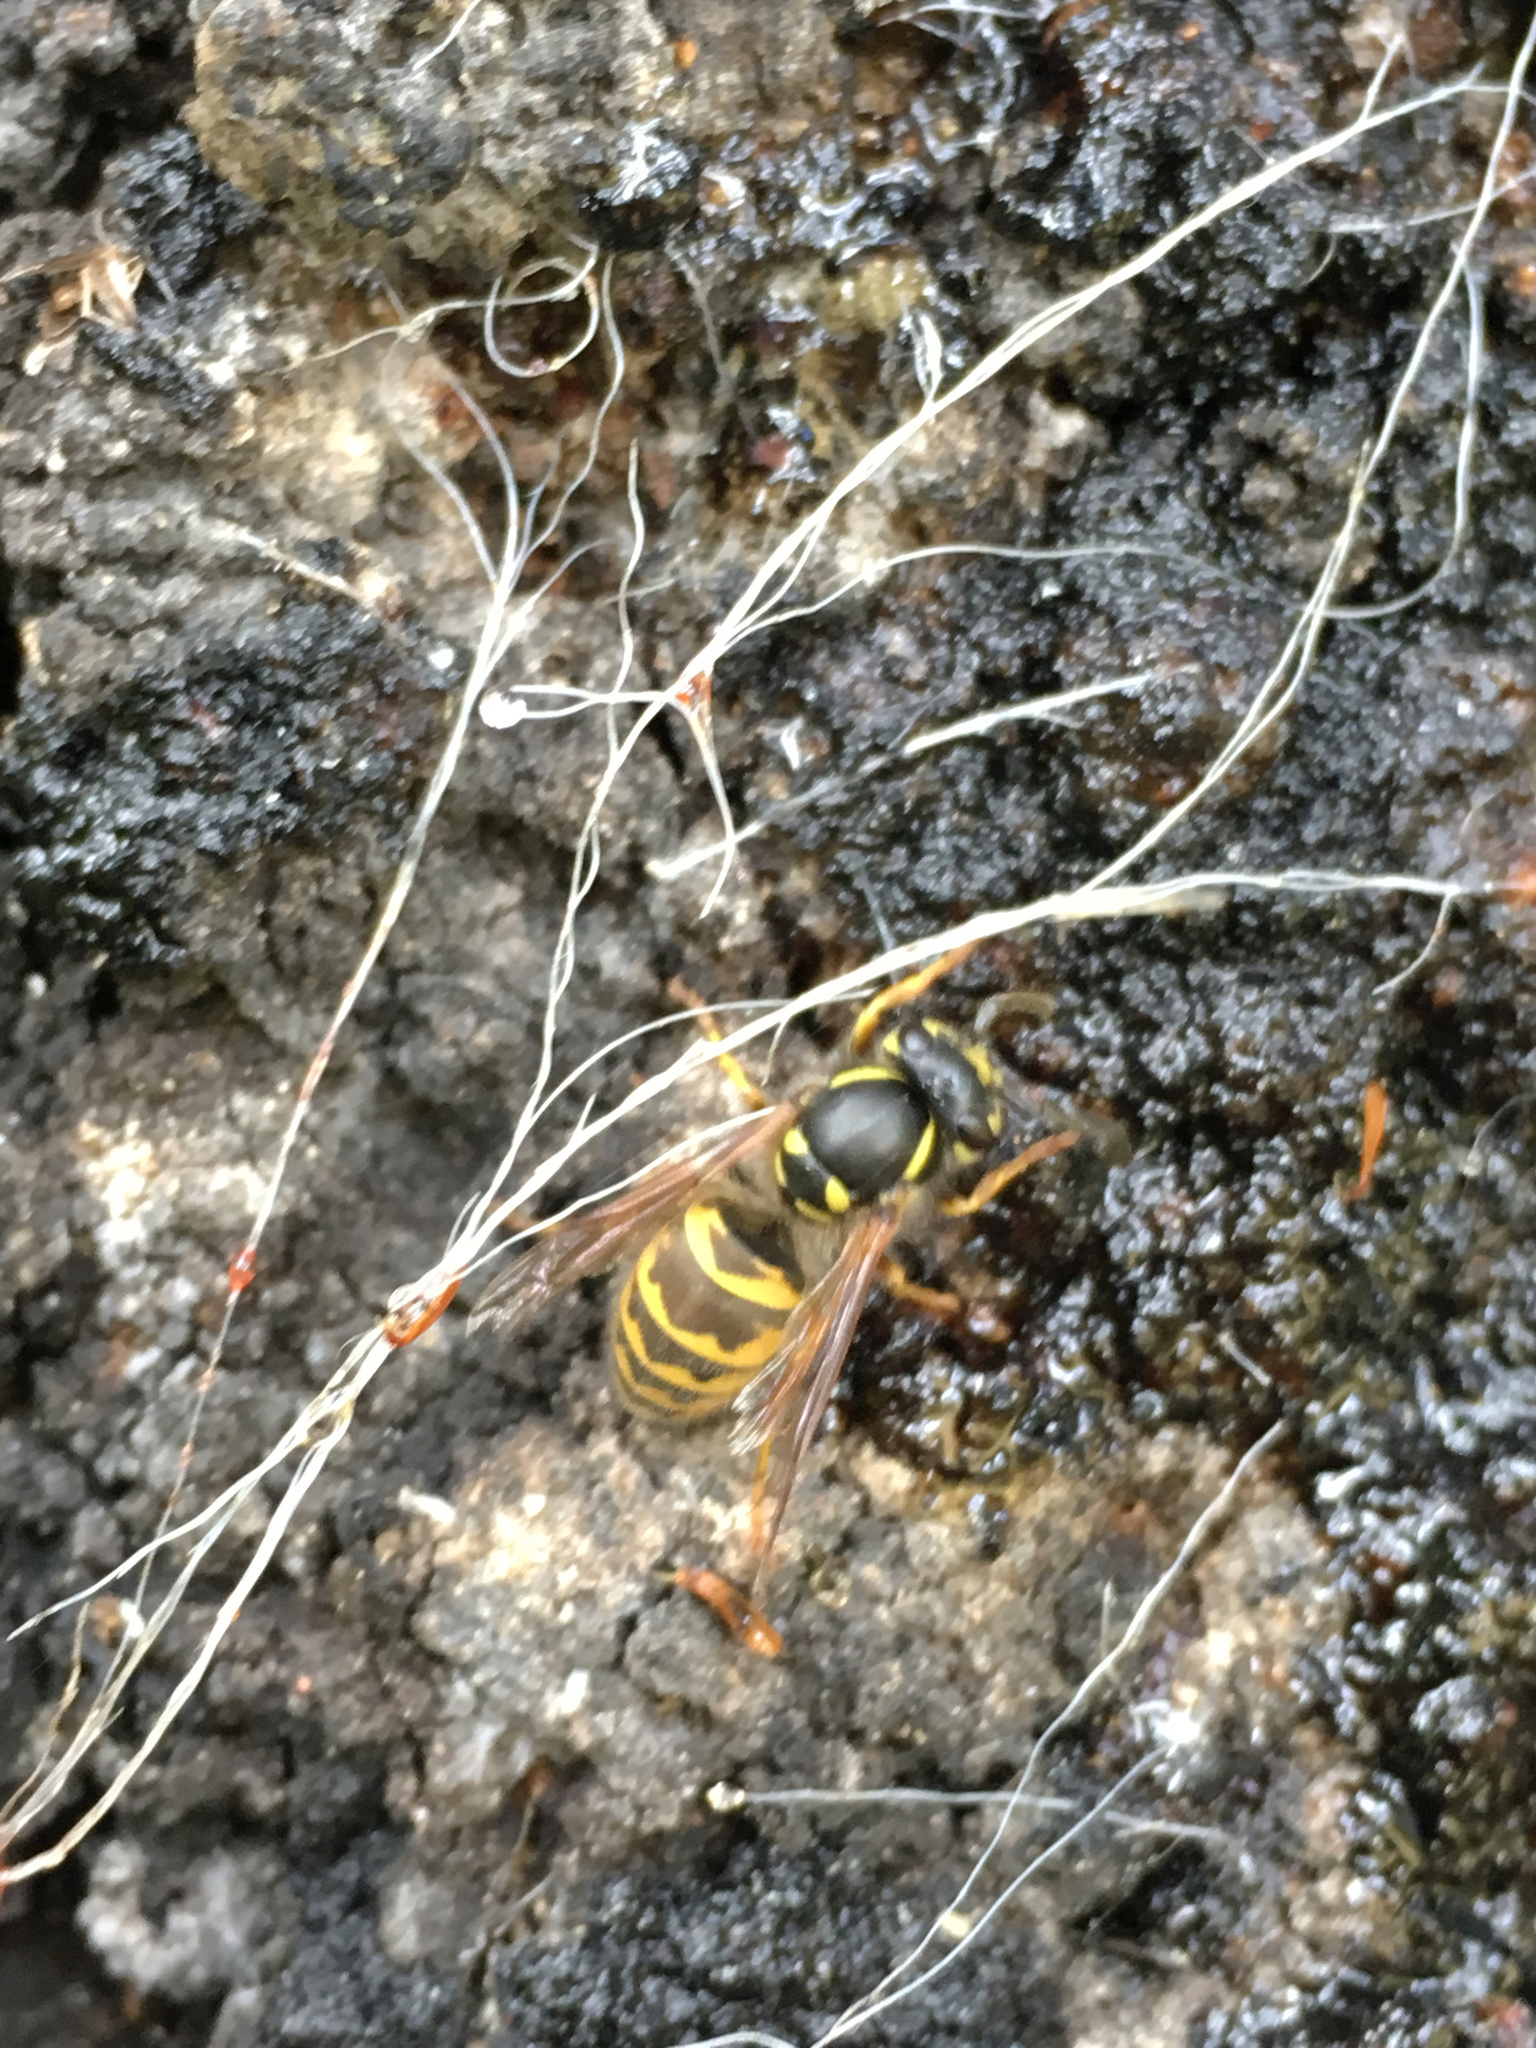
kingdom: Animalia
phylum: Arthropoda
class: Insecta
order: Hymenoptera
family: Vespidae
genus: Vespula
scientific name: Vespula vulgaris
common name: Common wasp
